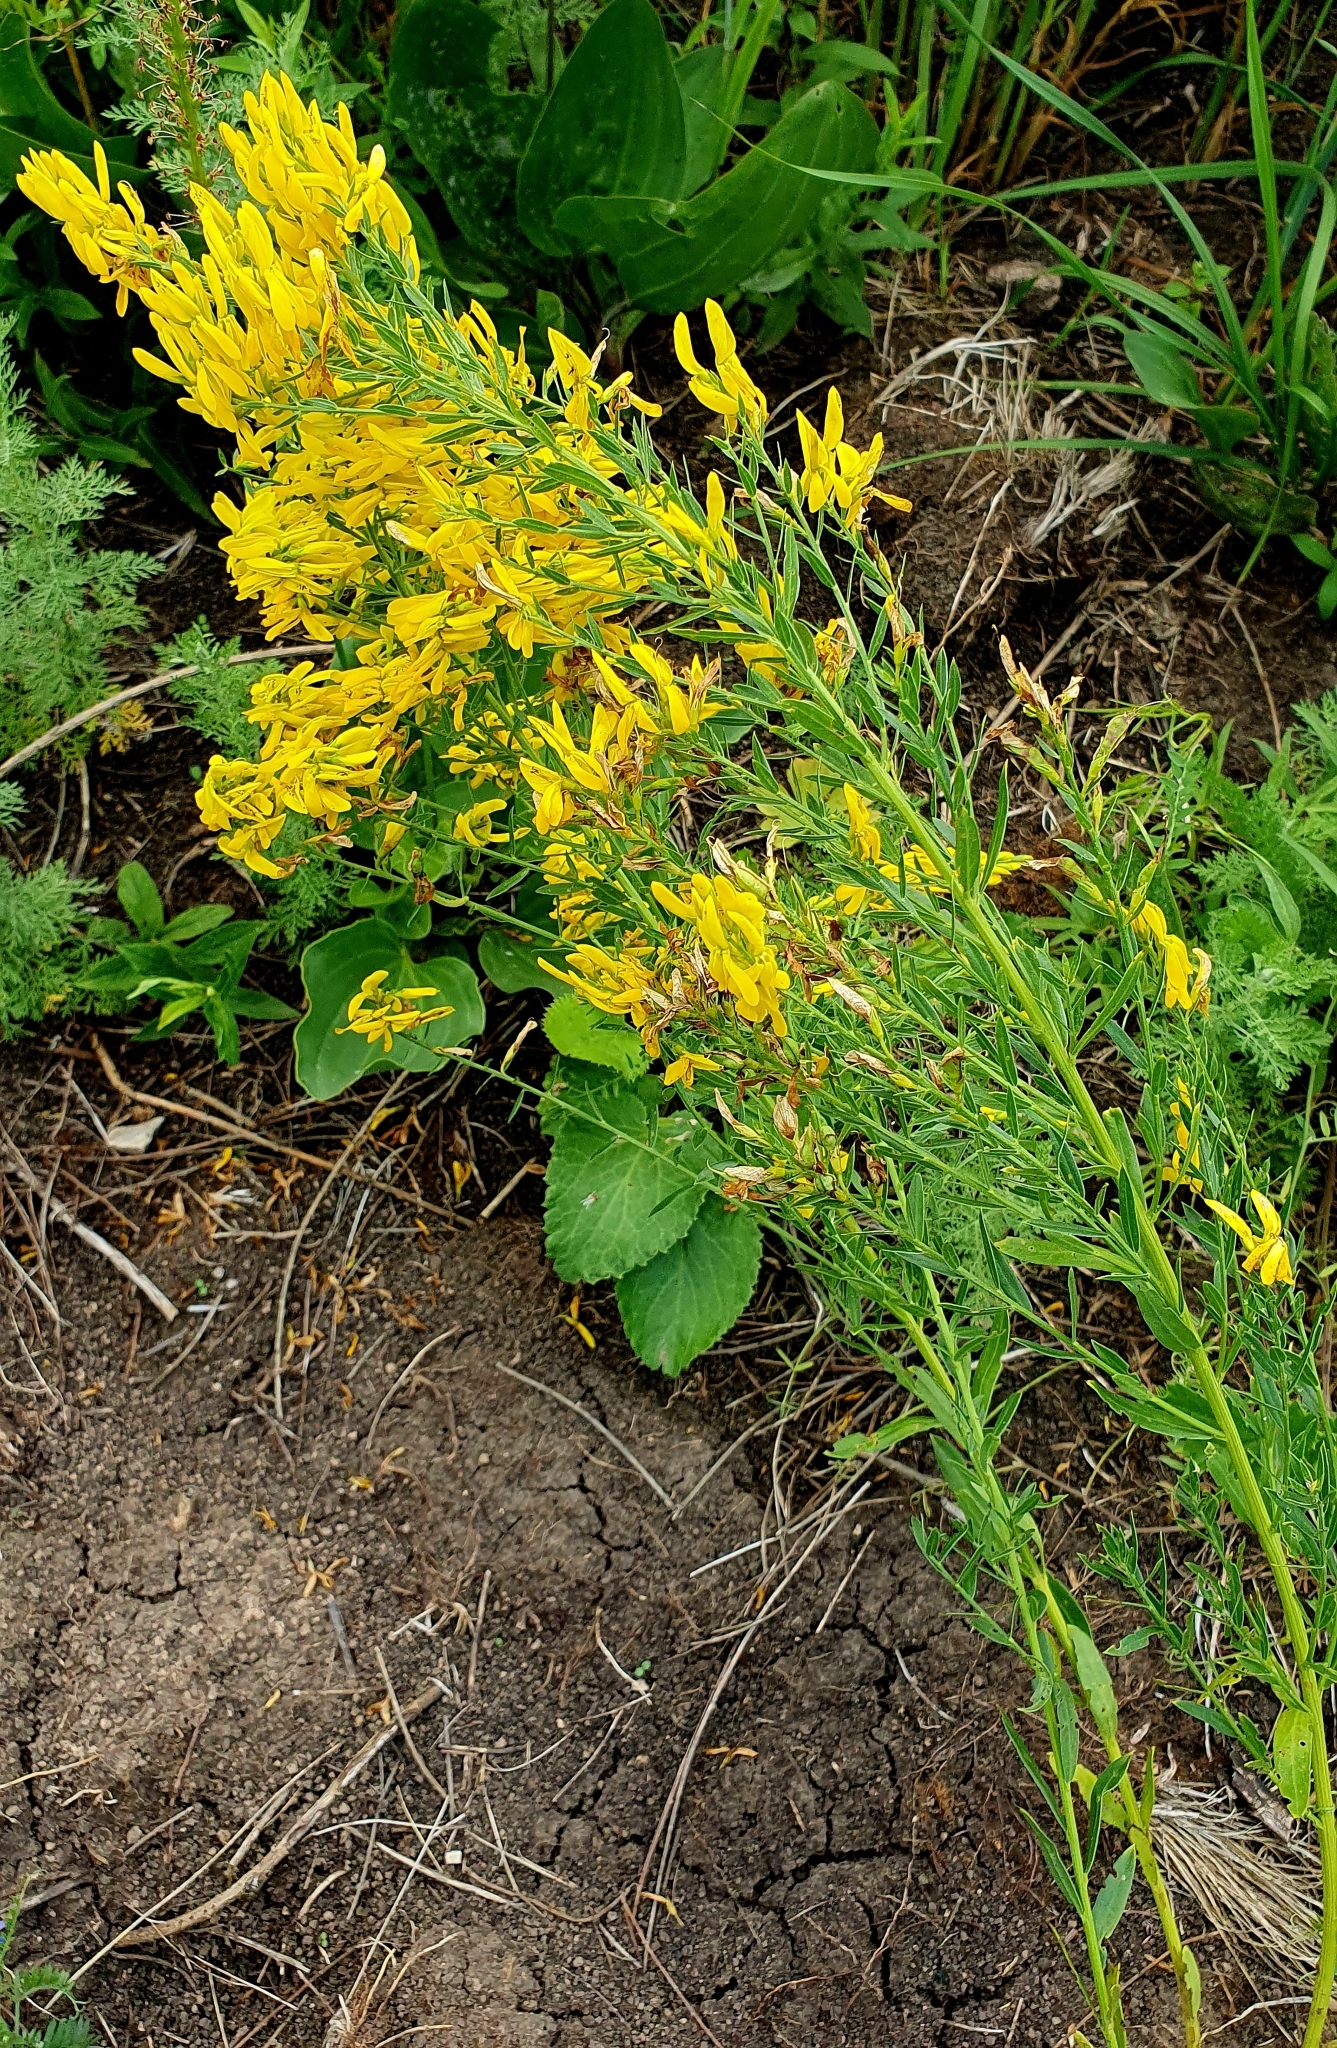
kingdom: Plantae
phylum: Tracheophyta
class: Magnoliopsida
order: Fabales
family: Fabaceae
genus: Genista
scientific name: Genista tinctoria
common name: Dyer's greenweed
